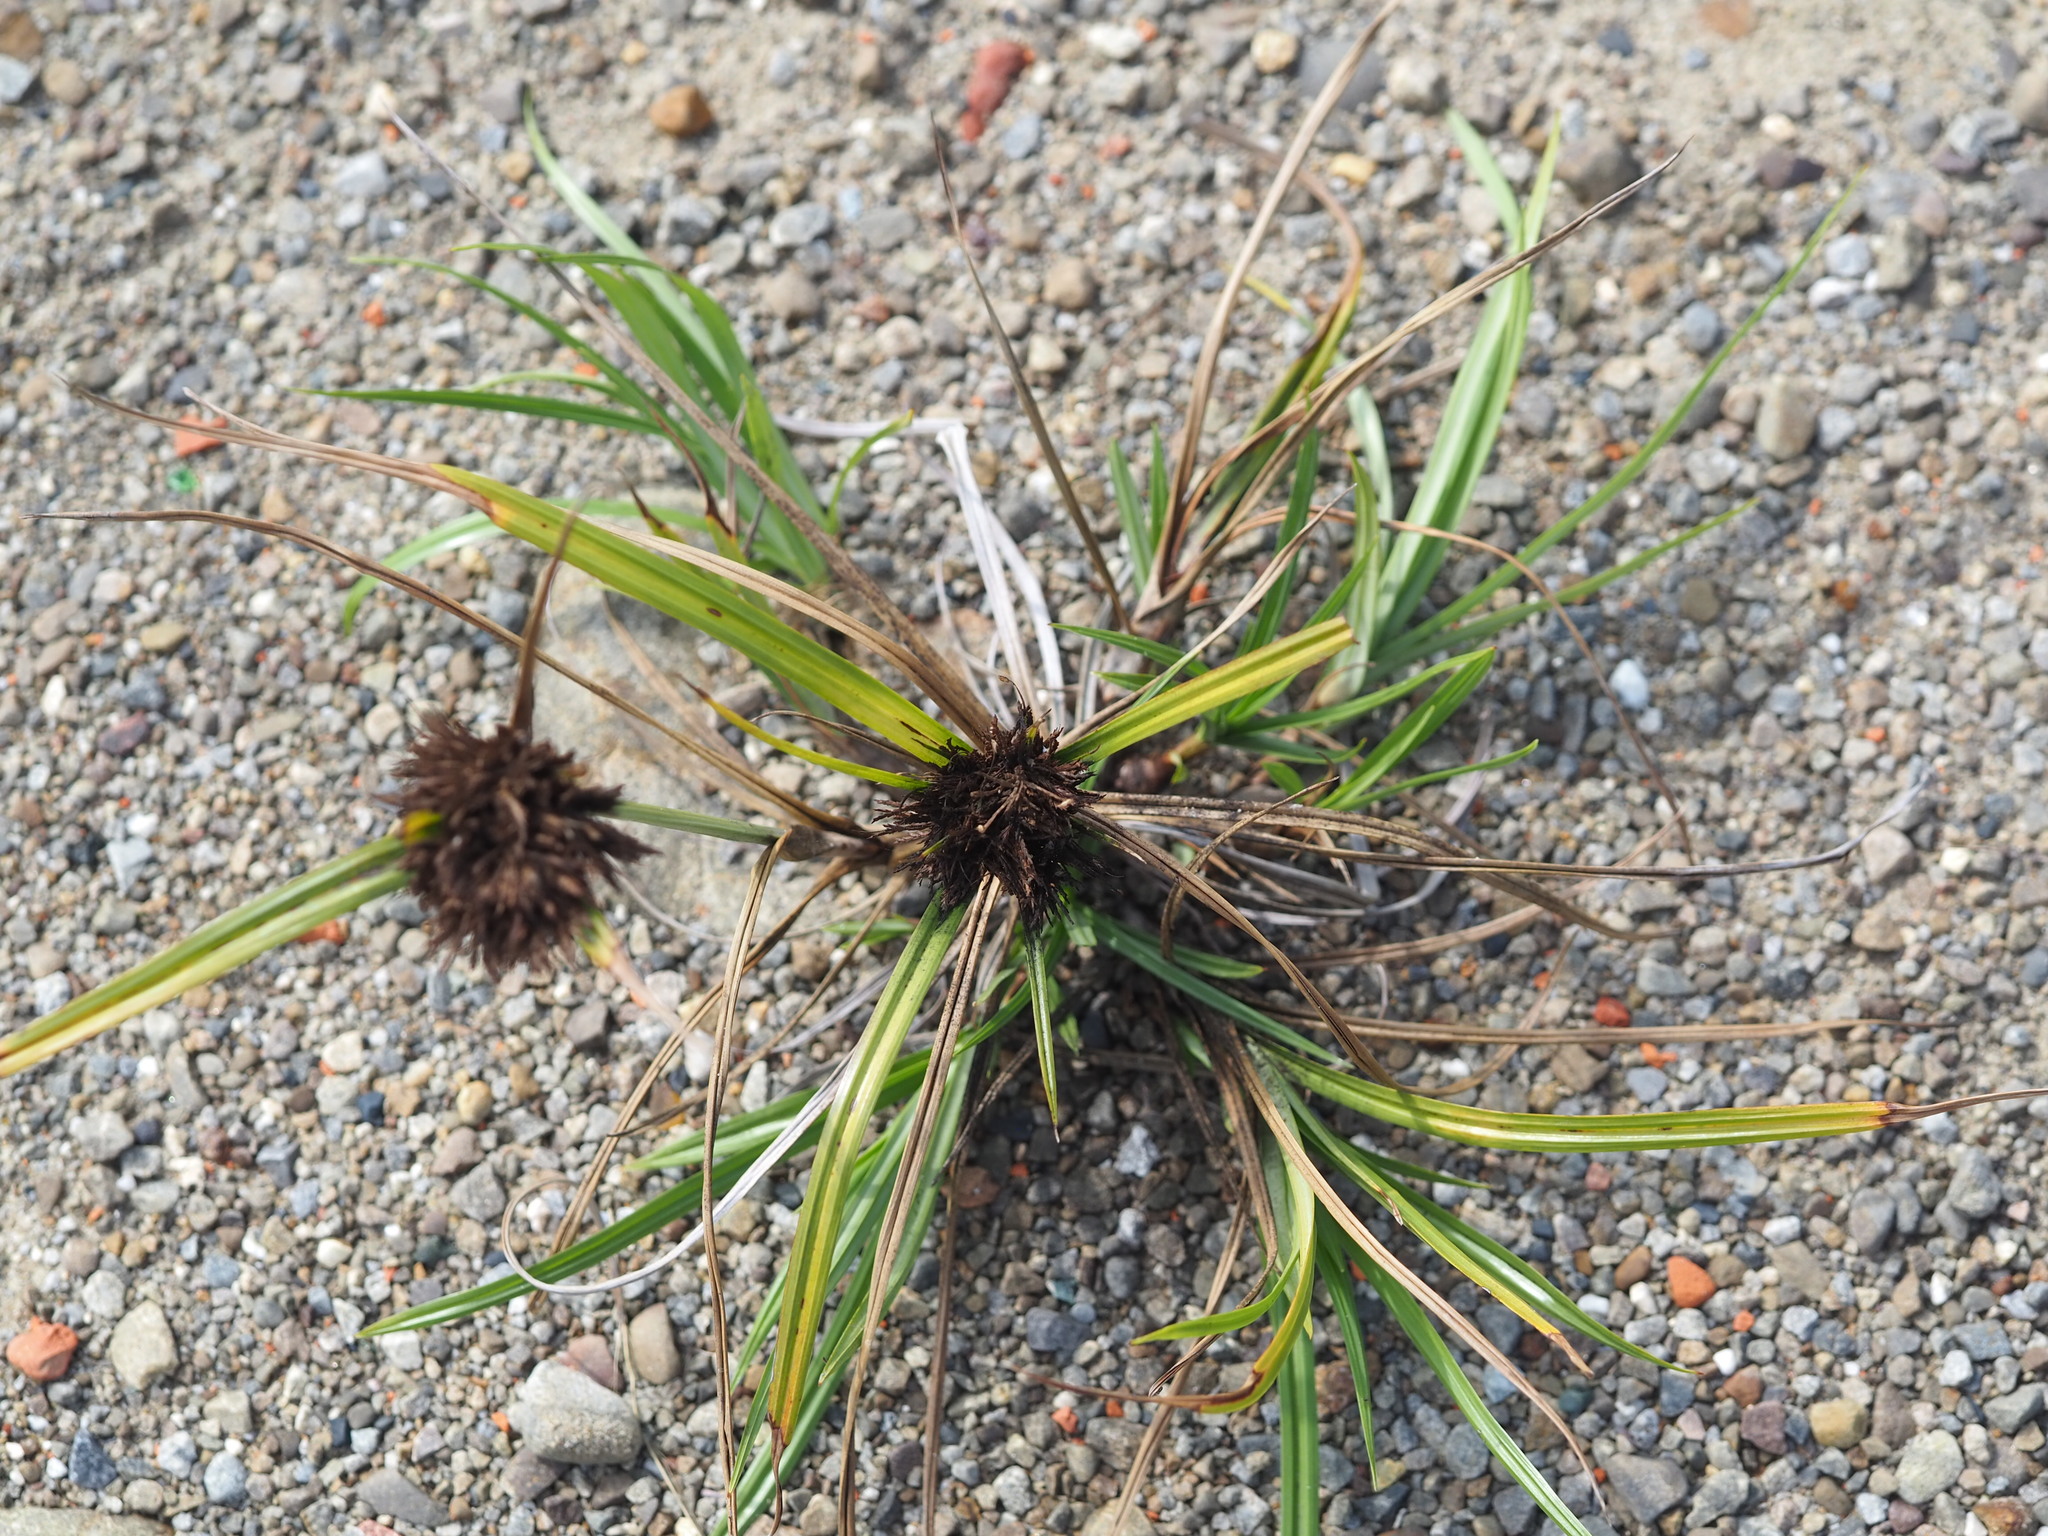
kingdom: Plantae
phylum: Tracheophyta
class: Liliopsida
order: Poales
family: Cyperaceae
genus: Cyperus
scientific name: Cyperus polystachyos
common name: Bunchy flat sedge
